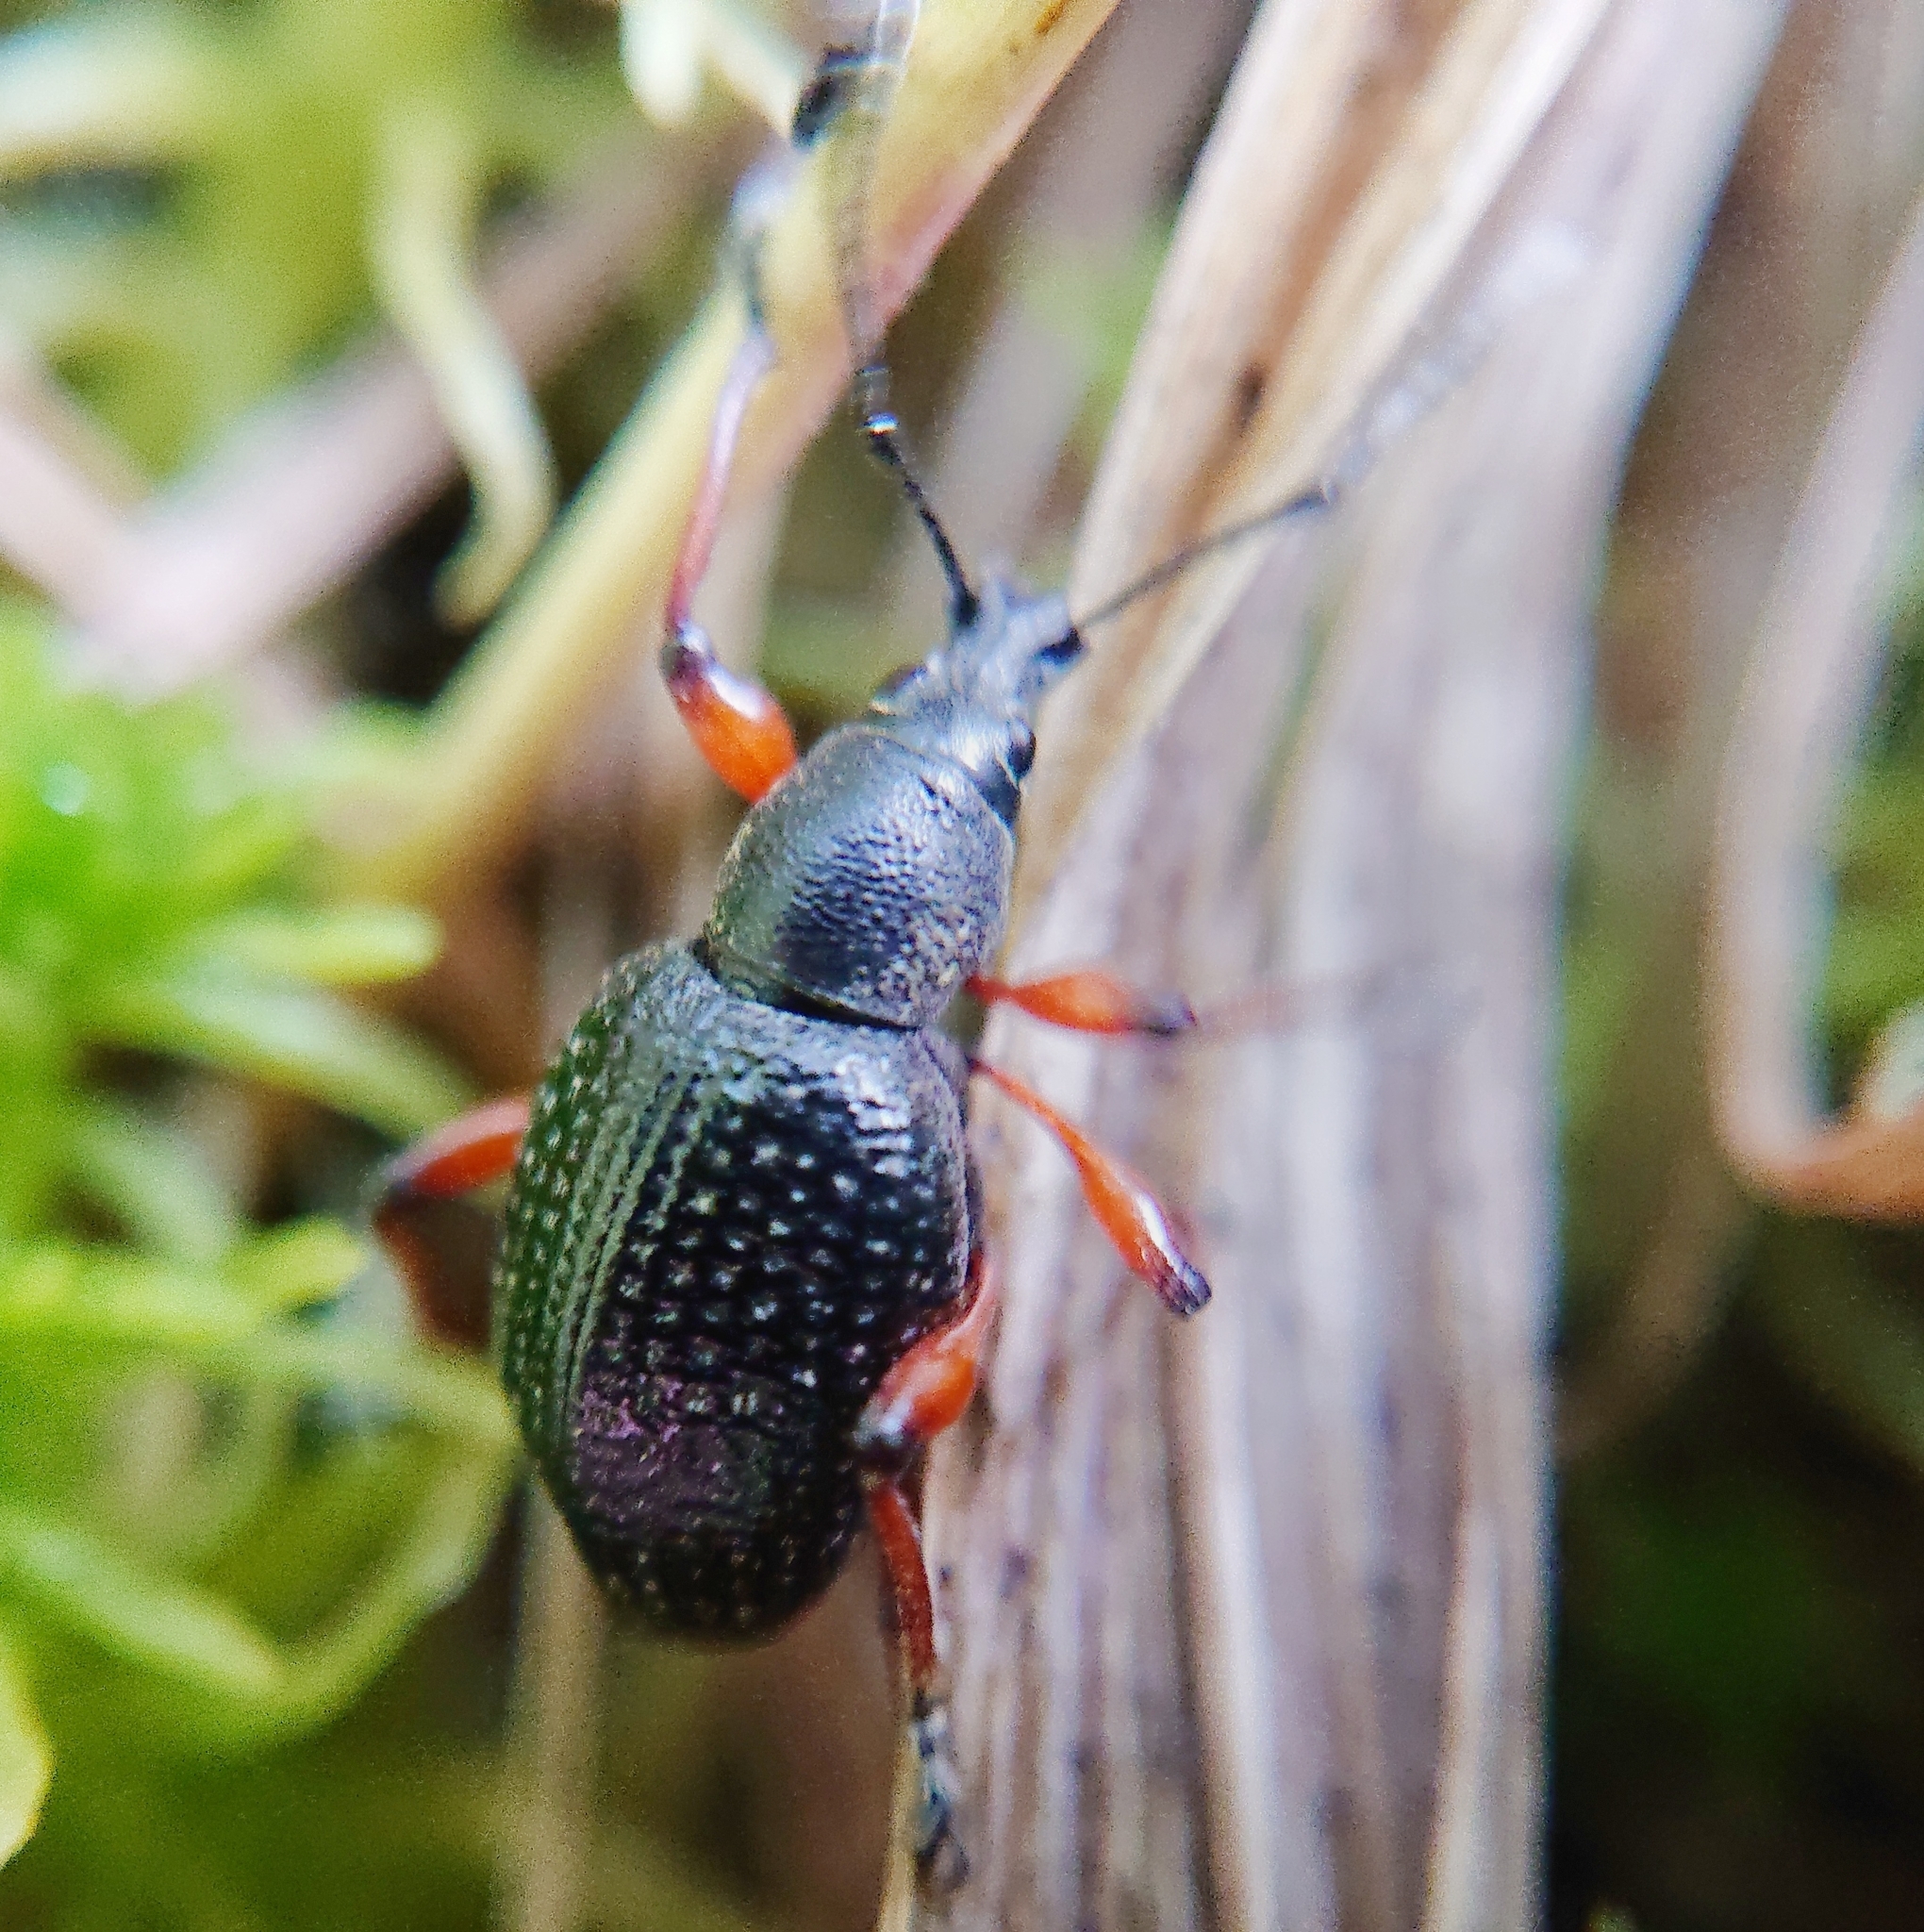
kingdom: Animalia
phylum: Arthropoda
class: Insecta
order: Coleoptera
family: Curculionidae
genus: Otiorhynchus
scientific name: Otiorhynchus coecus
